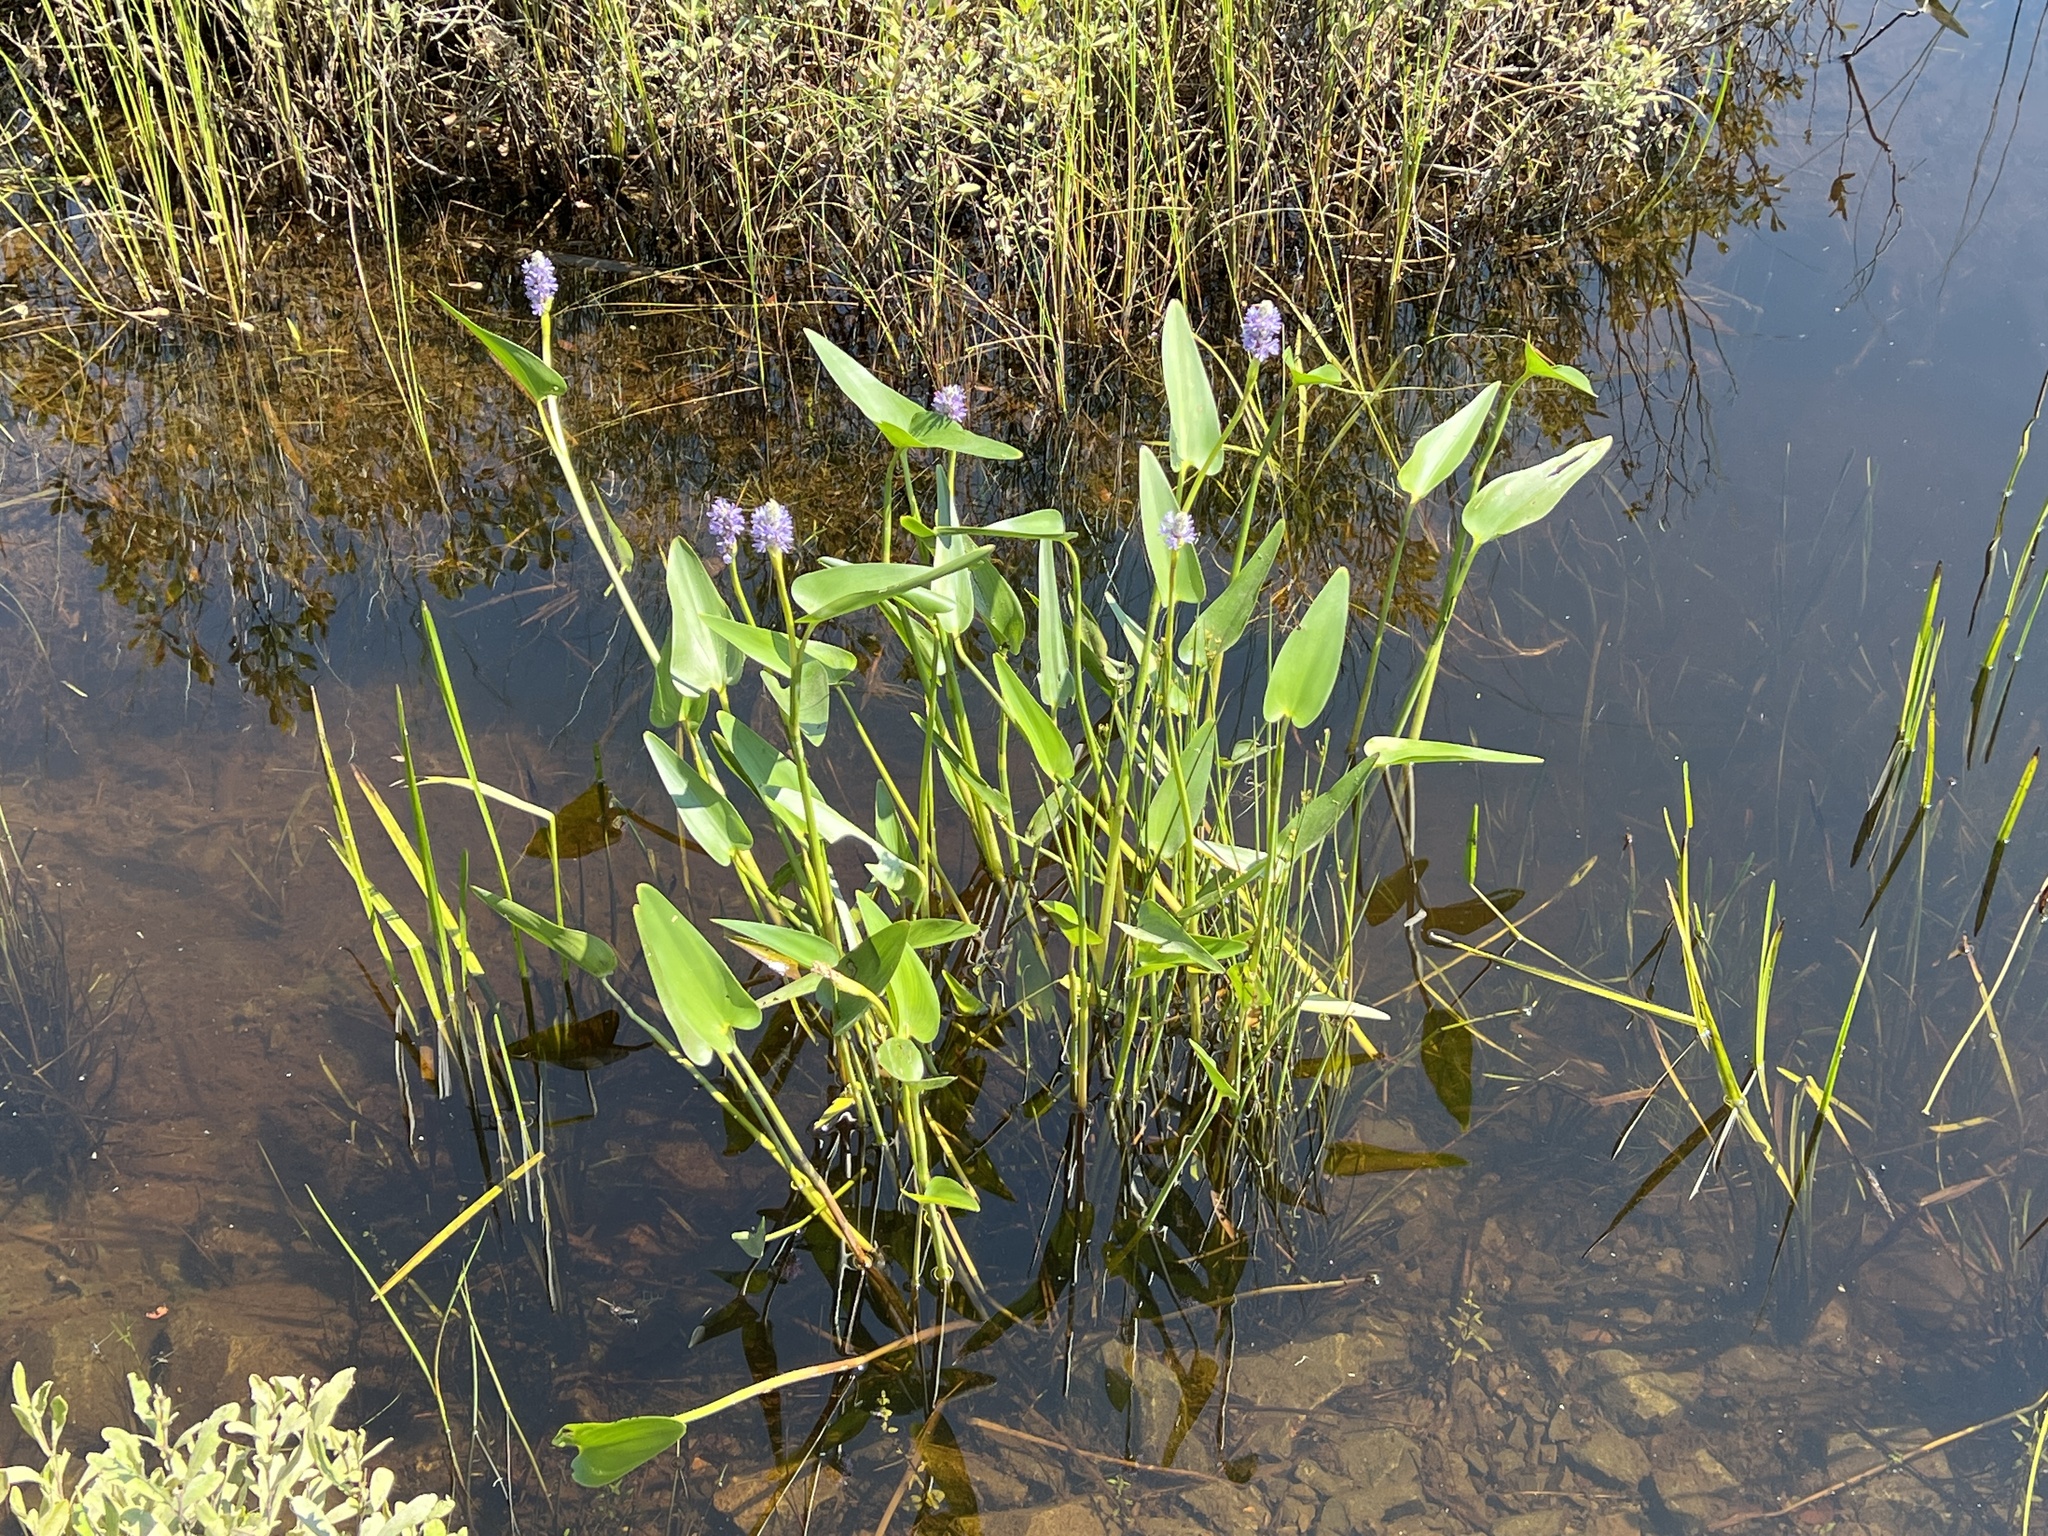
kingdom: Plantae
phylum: Tracheophyta
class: Liliopsida
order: Commelinales
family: Pontederiaceae
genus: Pontederia
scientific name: Pontederia cordata
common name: Pickerelweed
